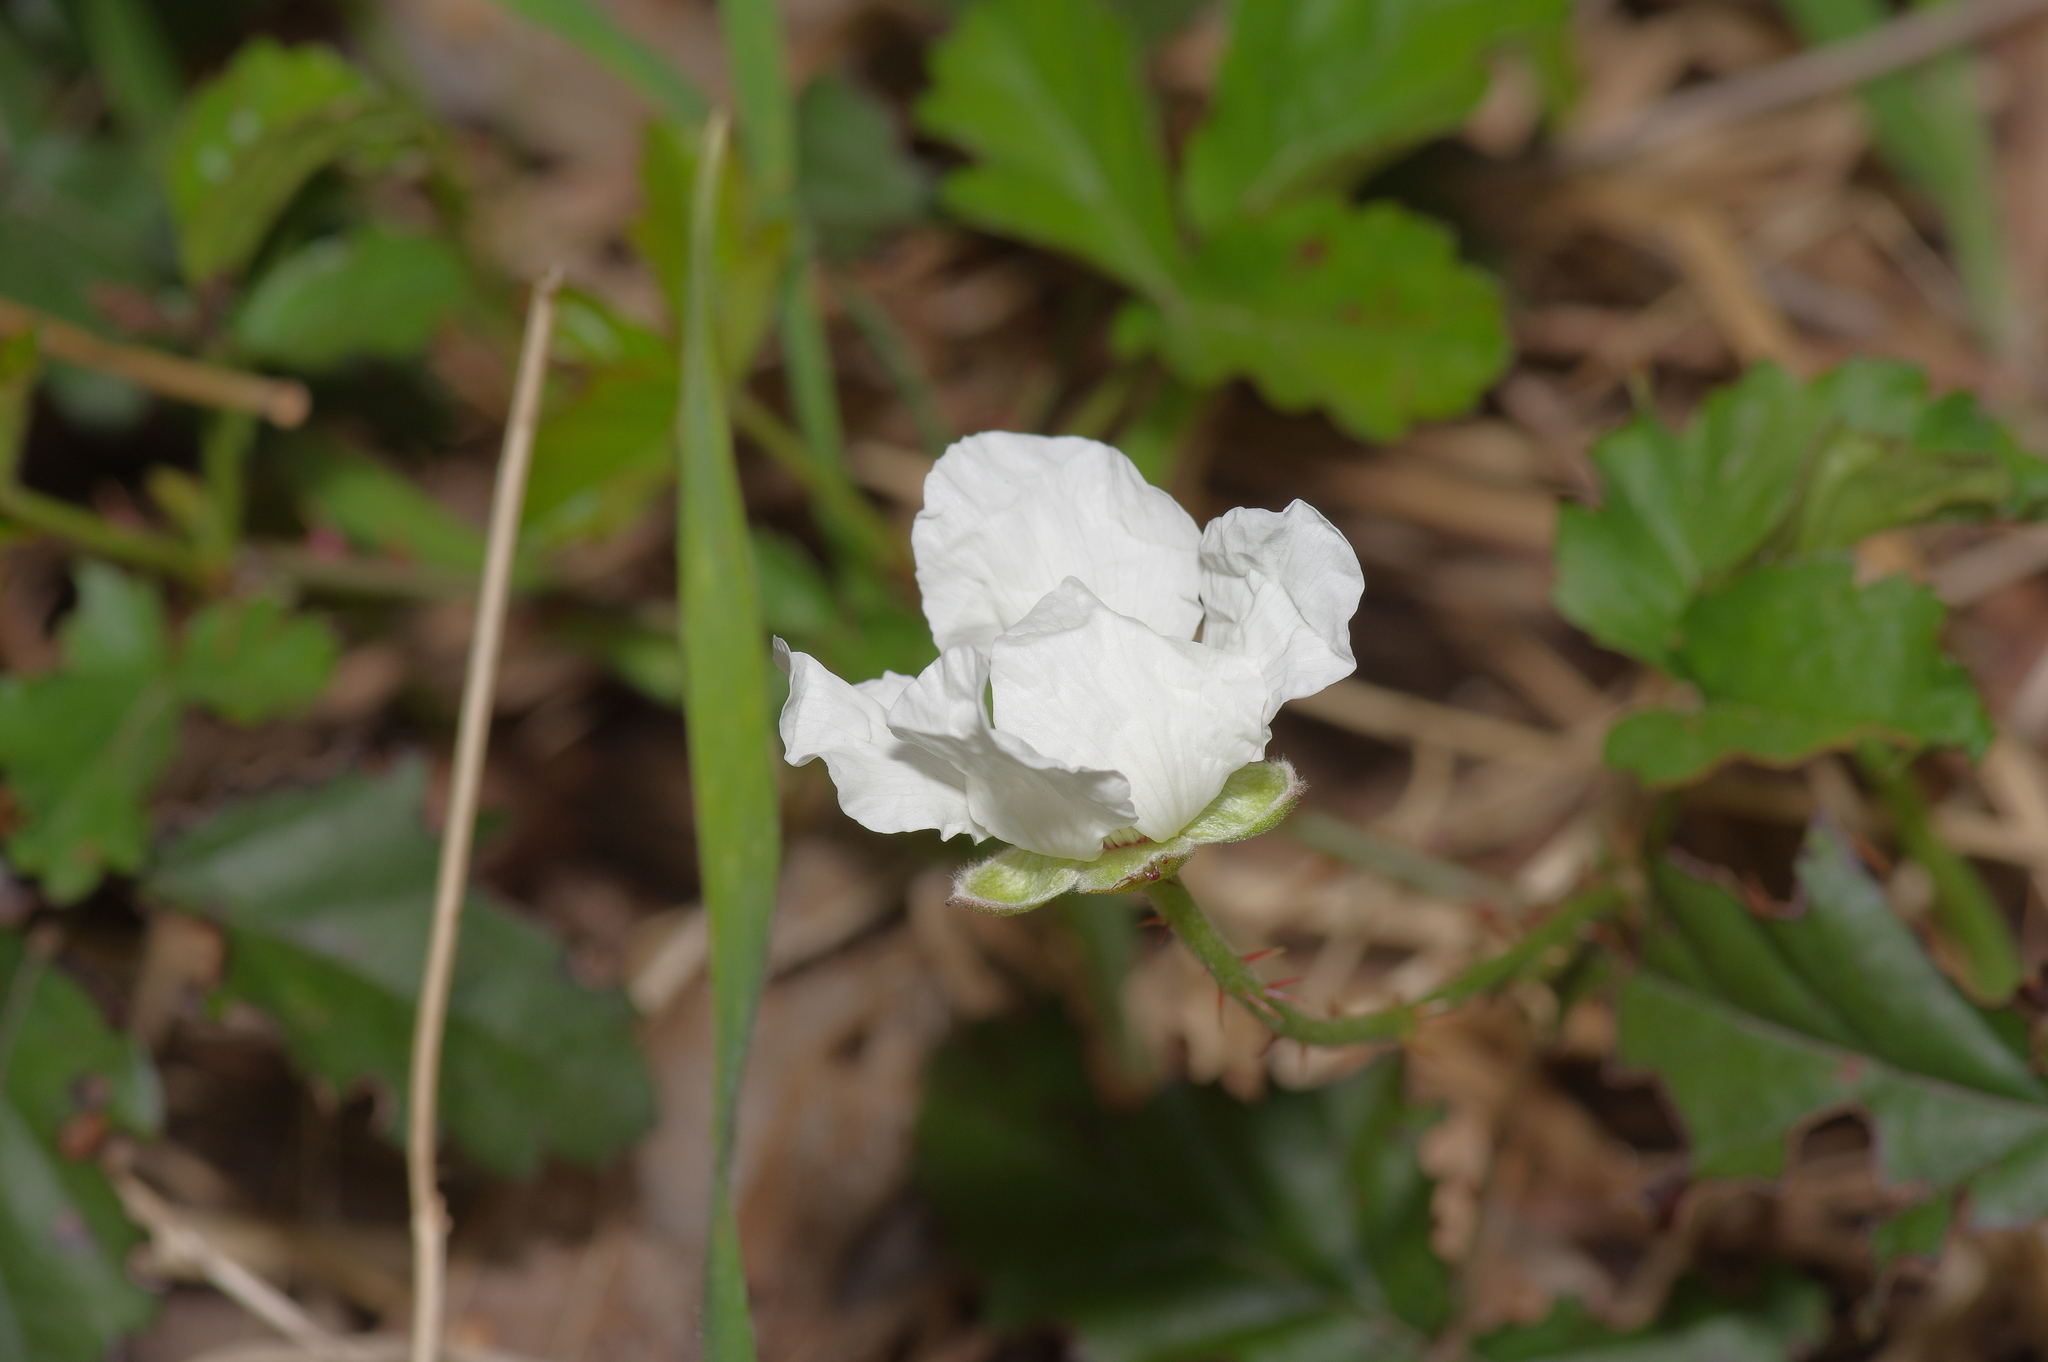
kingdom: Plantae
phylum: Tracheophyta
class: Magnoliopsida
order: Rosales
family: Rosaceae
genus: Rubus
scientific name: Rubus trivialis
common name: Southern dewberry
